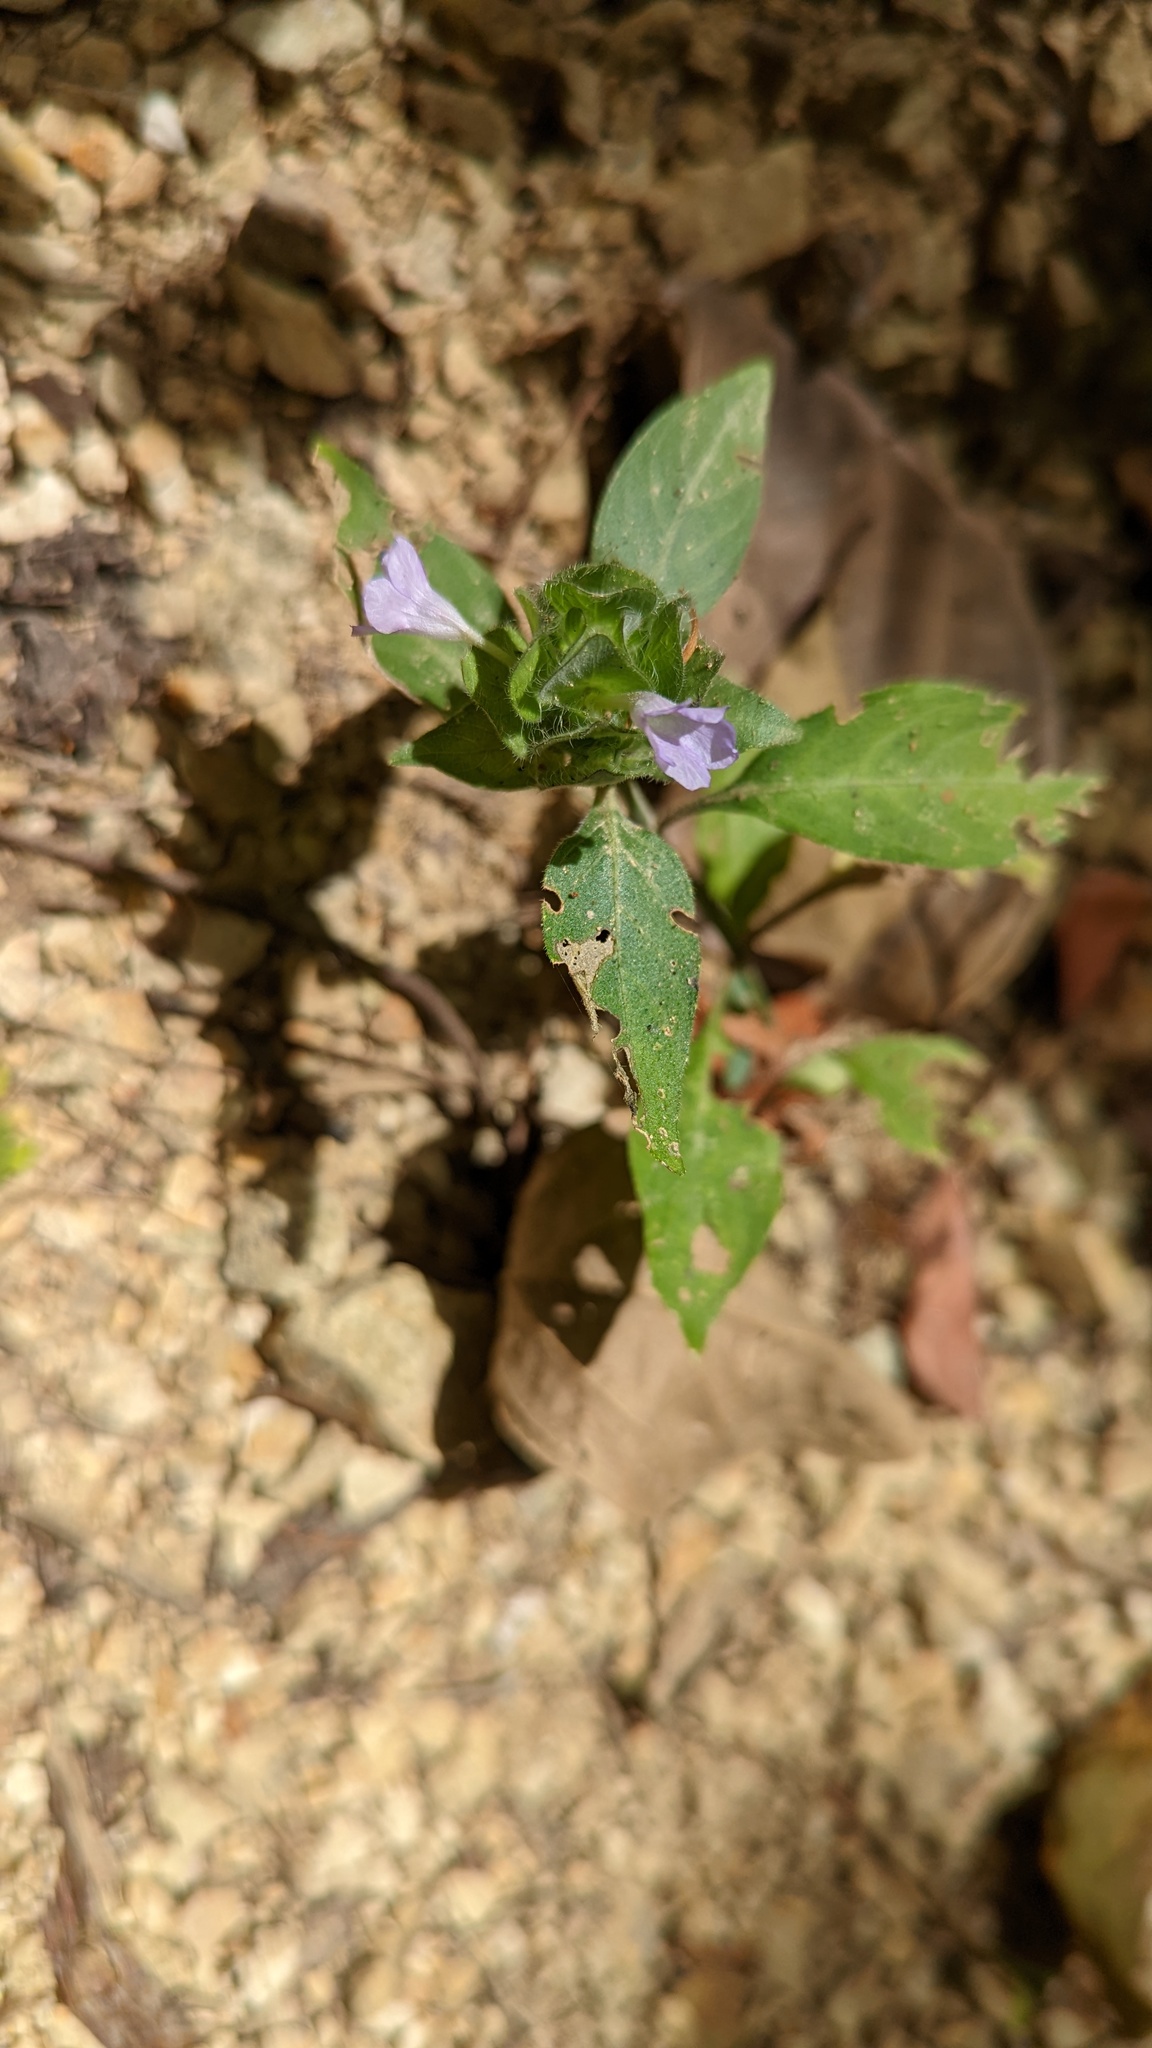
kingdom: Plantae
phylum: Tracheophyta
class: Magnoliopsida
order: Lamiales
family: Acanthaceae
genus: Ruellia
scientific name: Ruellia blechum
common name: Browne's blechum
